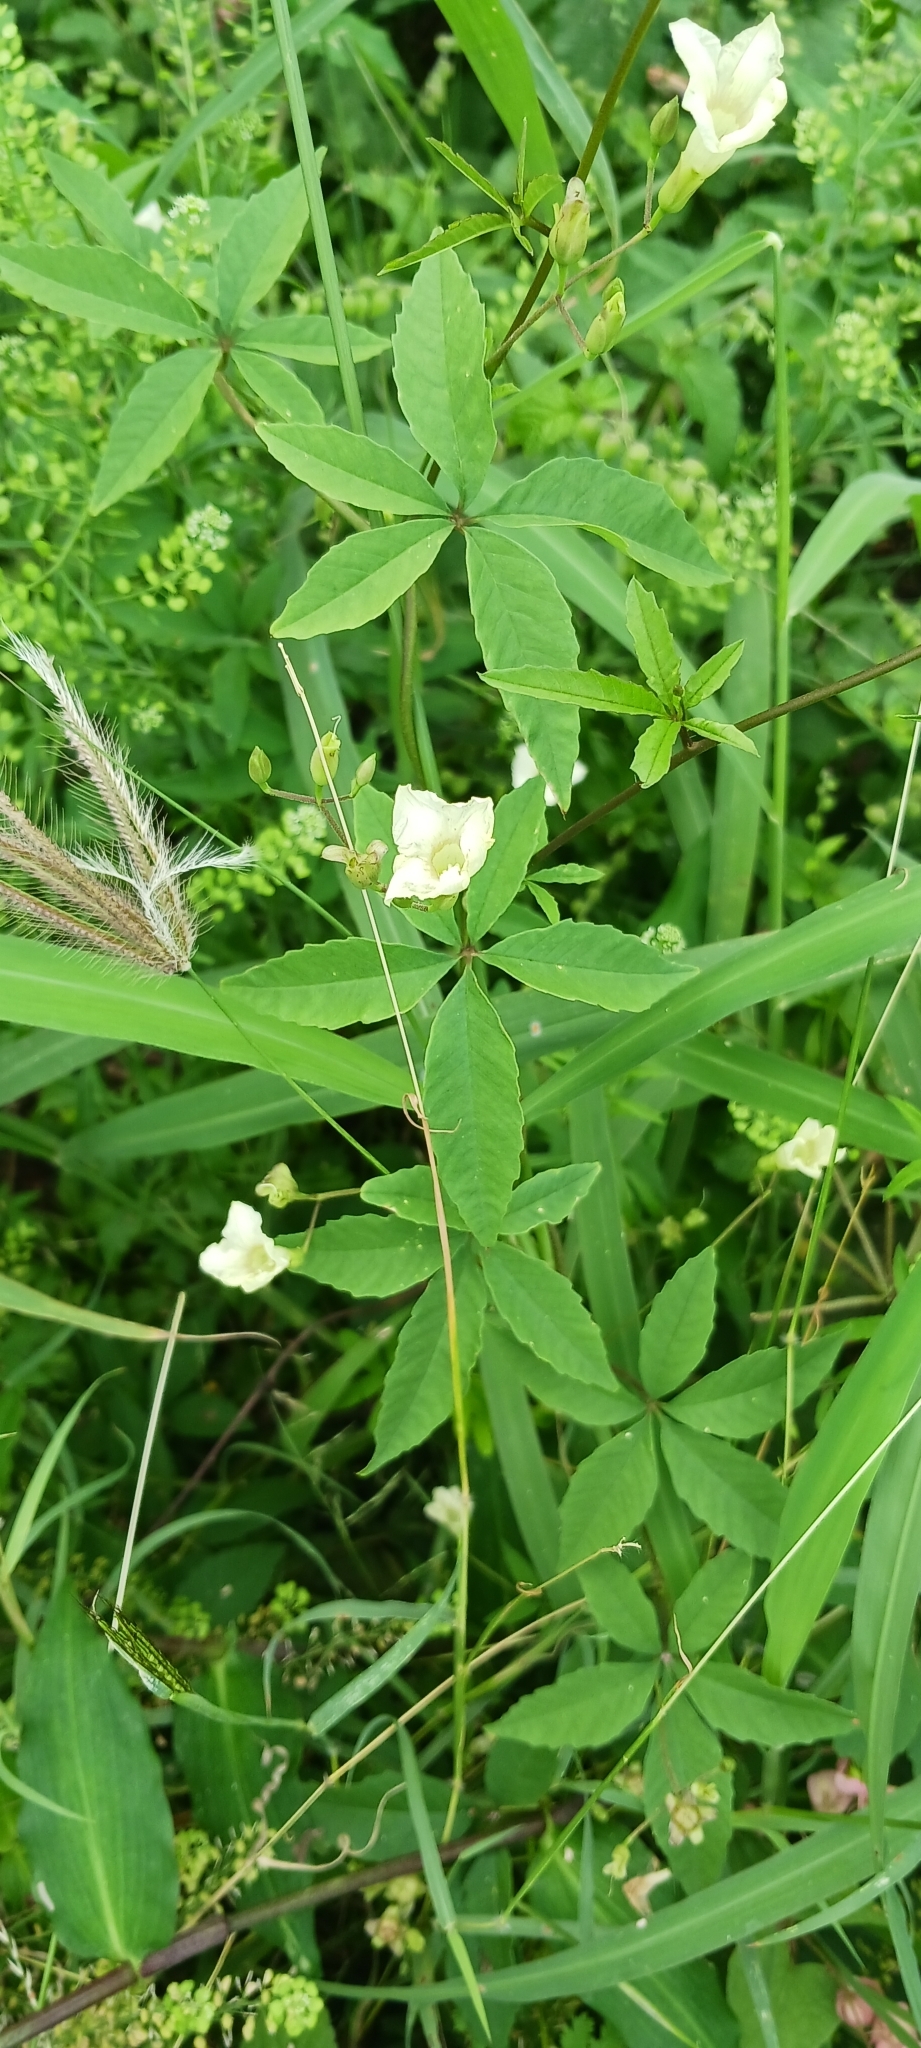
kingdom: Plantae
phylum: Tracheophyta
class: Magnoliopsida
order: Solanales
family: Convolvulaceae
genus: Distimake
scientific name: Distimake quinquefolius
